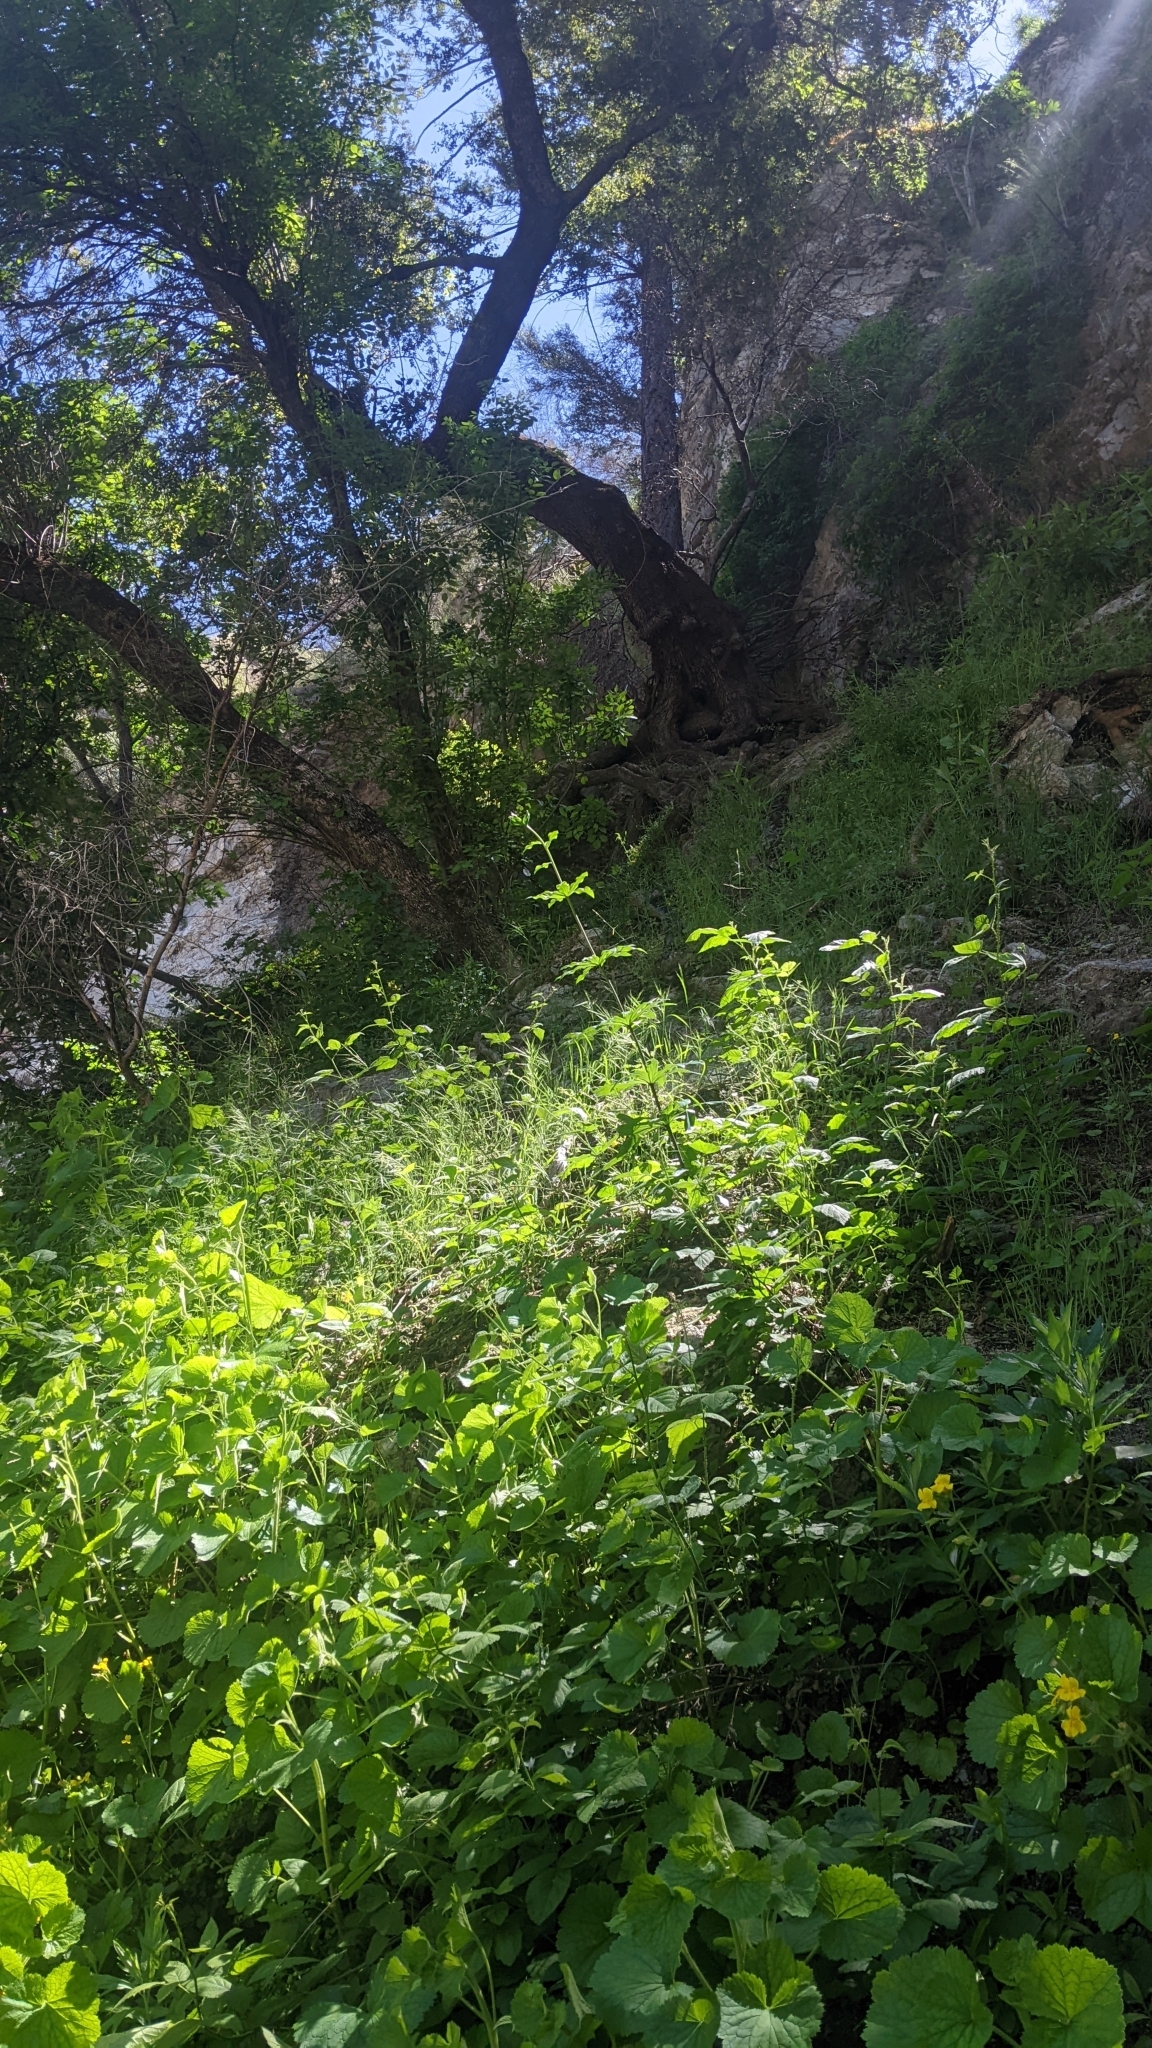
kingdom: Plantae
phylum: Tracheophyta
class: Liliopsida
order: Liliales
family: Liliaceae
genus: Lilium
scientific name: Lilium humboldtii
